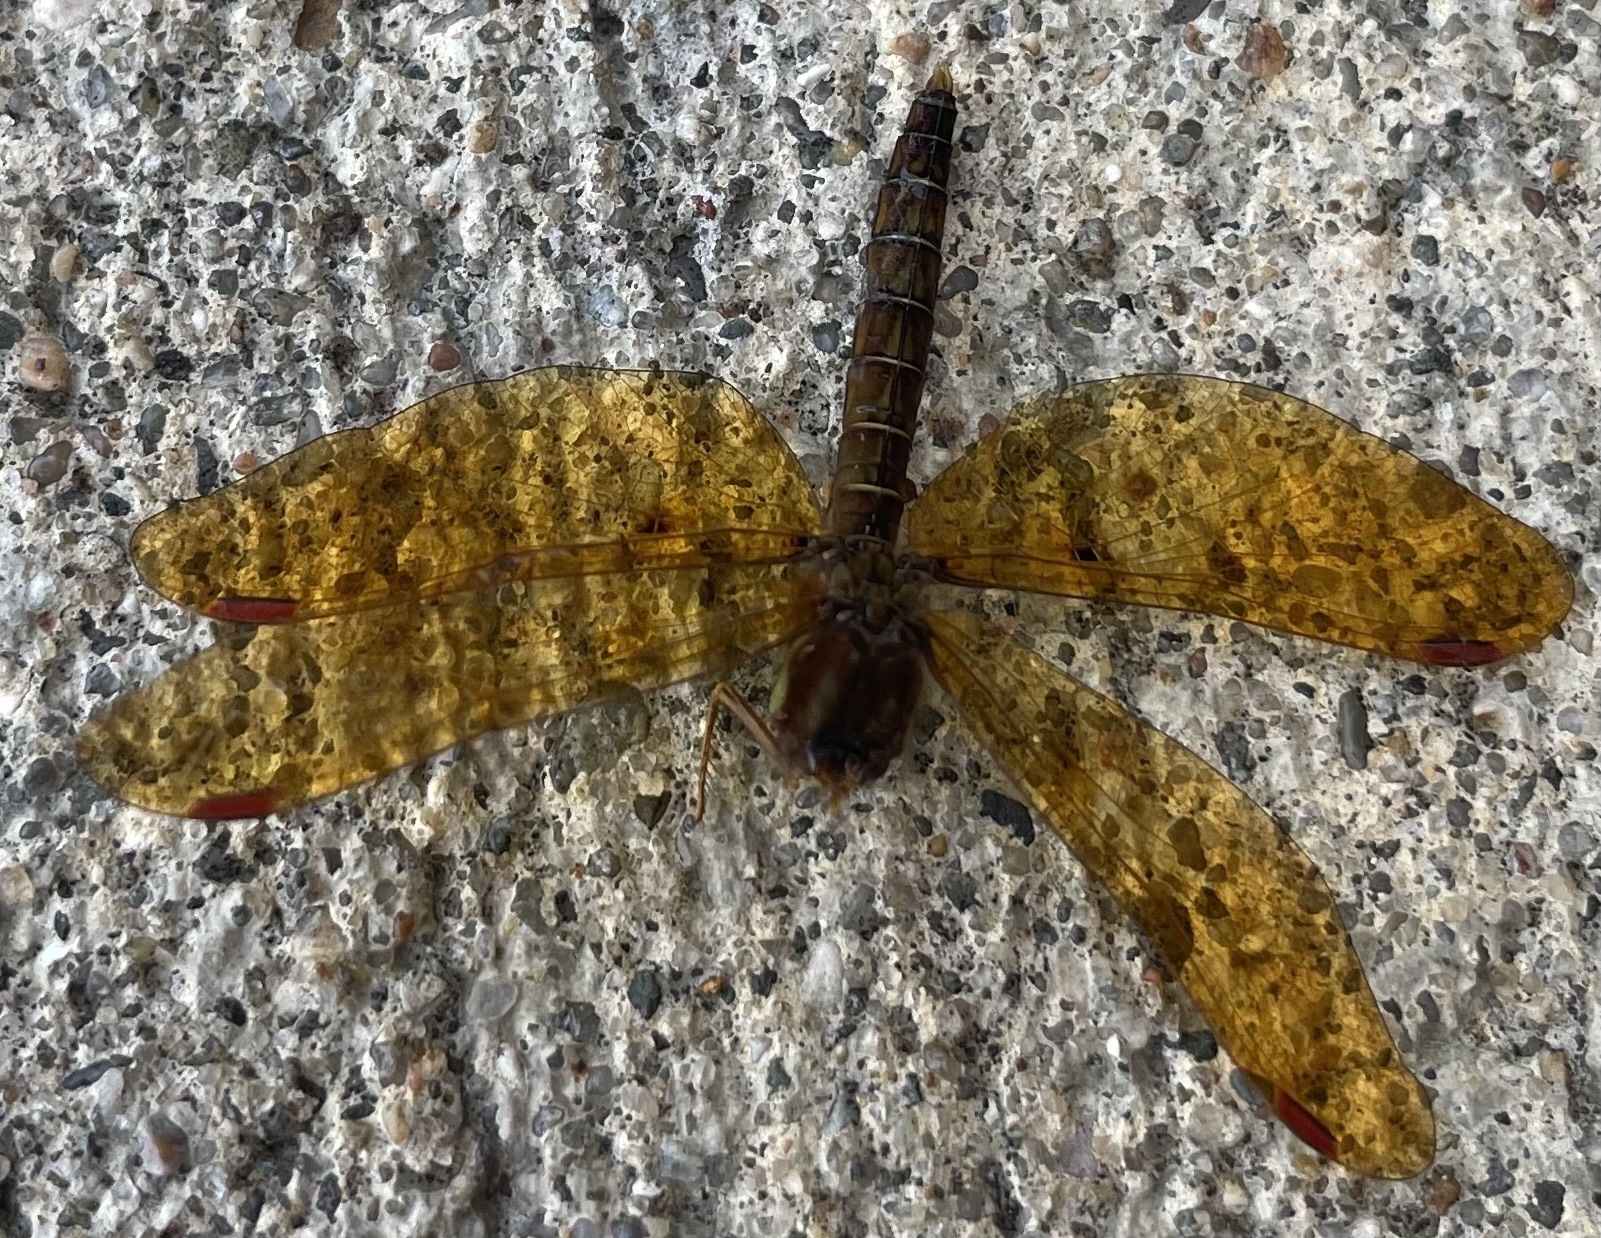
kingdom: Animalia
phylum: Arthropoda
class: Insecta
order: Odonata
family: Libellulidae
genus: Perithemis
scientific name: Perithemis tenera
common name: Eastern amberwing
